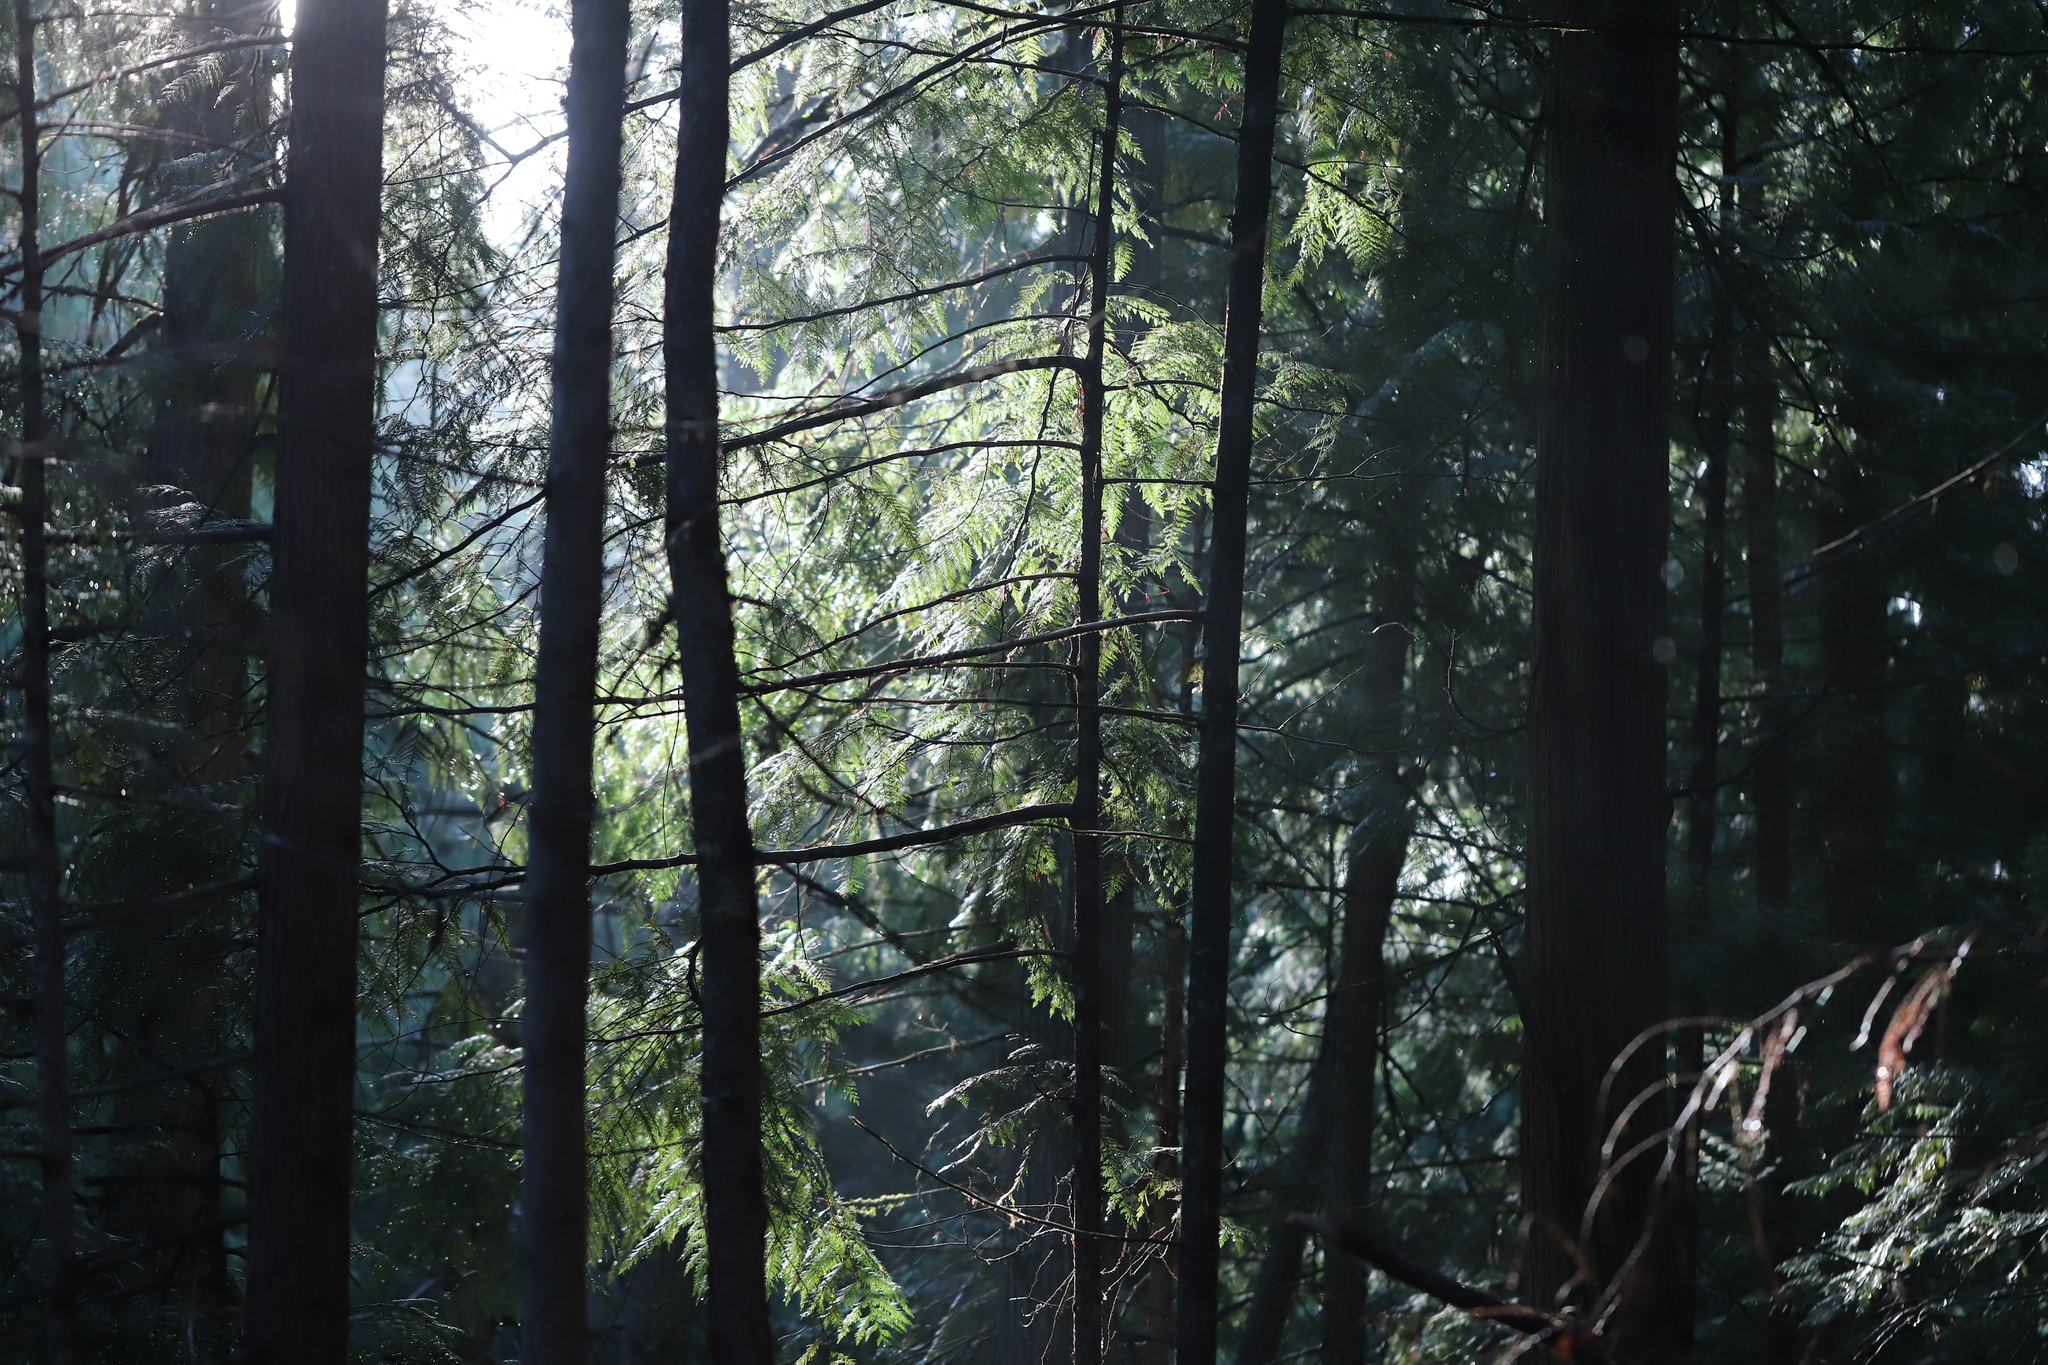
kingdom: Plantae
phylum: Tracheophyta
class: Pinopsida
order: Pinales
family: Cupressaceae
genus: Thuja
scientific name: Thuja plicata
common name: Western red-cedar
